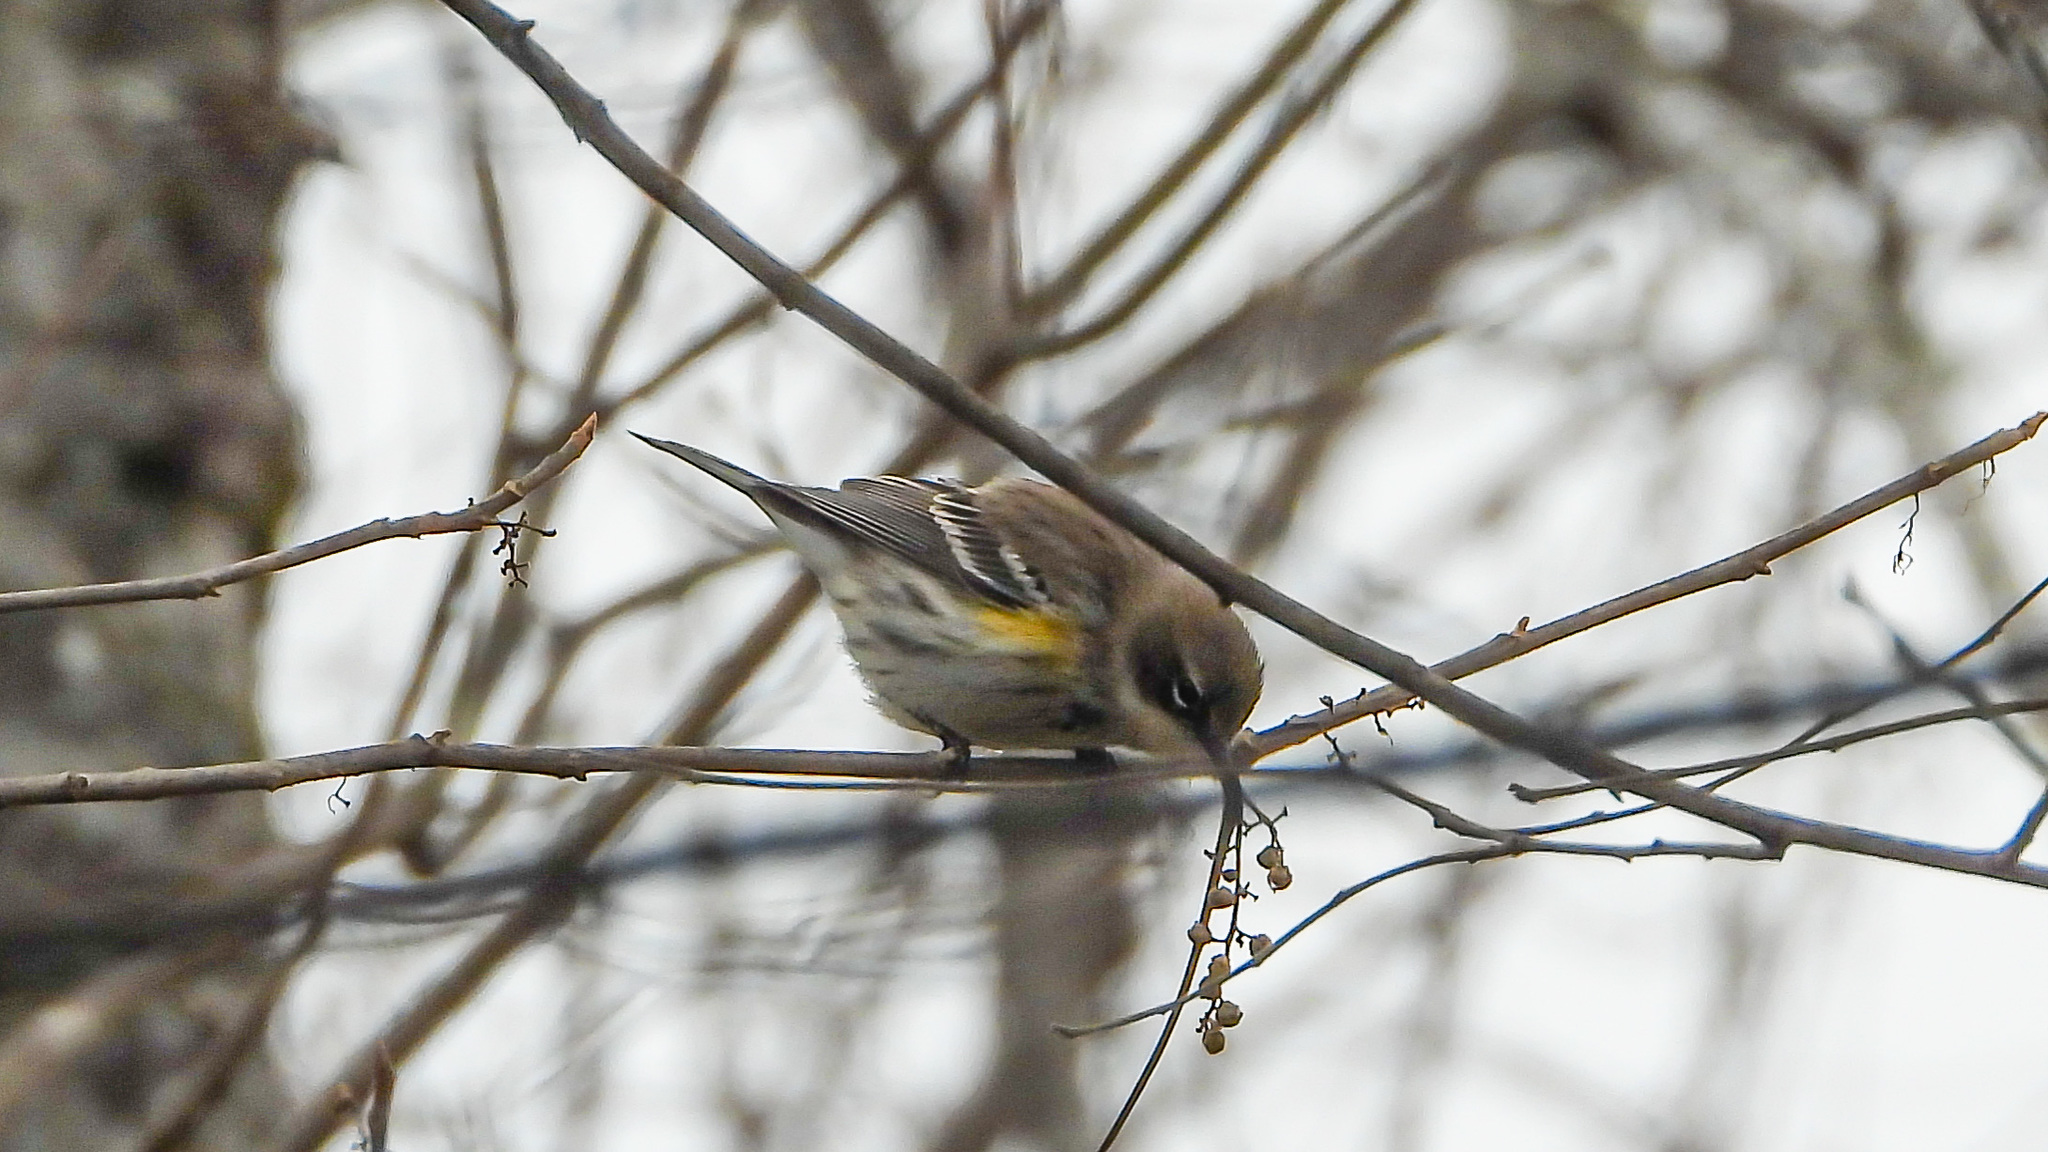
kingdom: Animalia
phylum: Chordata
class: Aves
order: Passeriformes
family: Parulidae
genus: Setophaga
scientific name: Setophaga coronata
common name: Myrtle warbler
